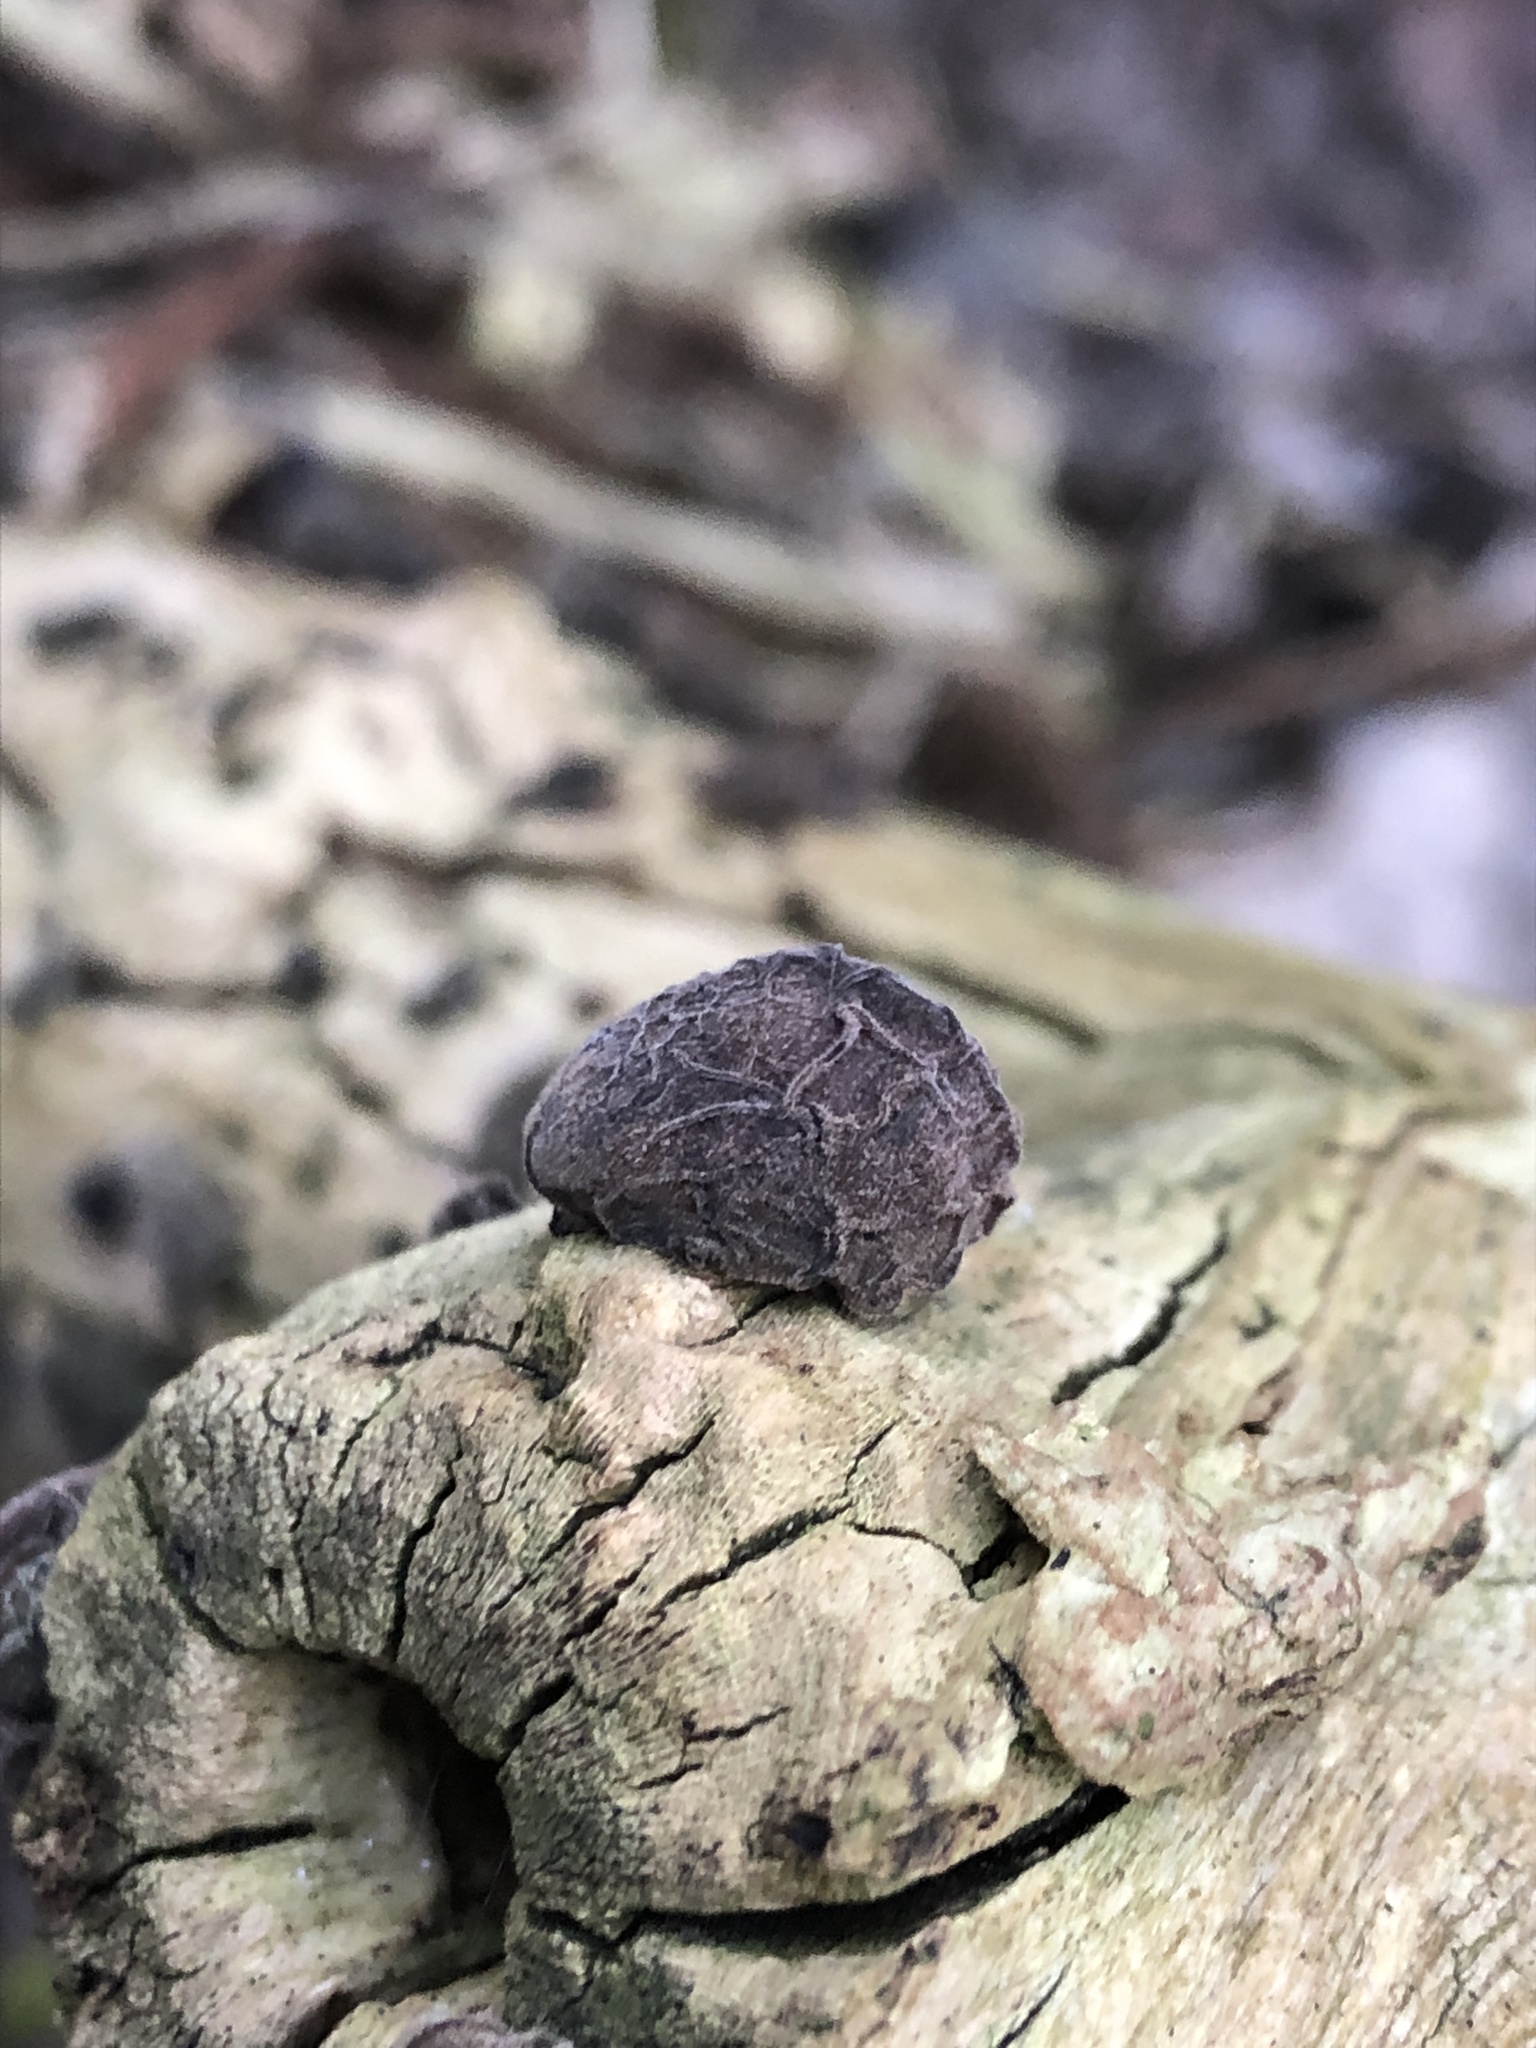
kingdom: Fungi
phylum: Basidiomycota
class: Agaricomycetes
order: Auriculariales
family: Auriculariaceae
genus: Auricularia
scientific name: Auricularia auricula-judae
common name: Jelly ear
